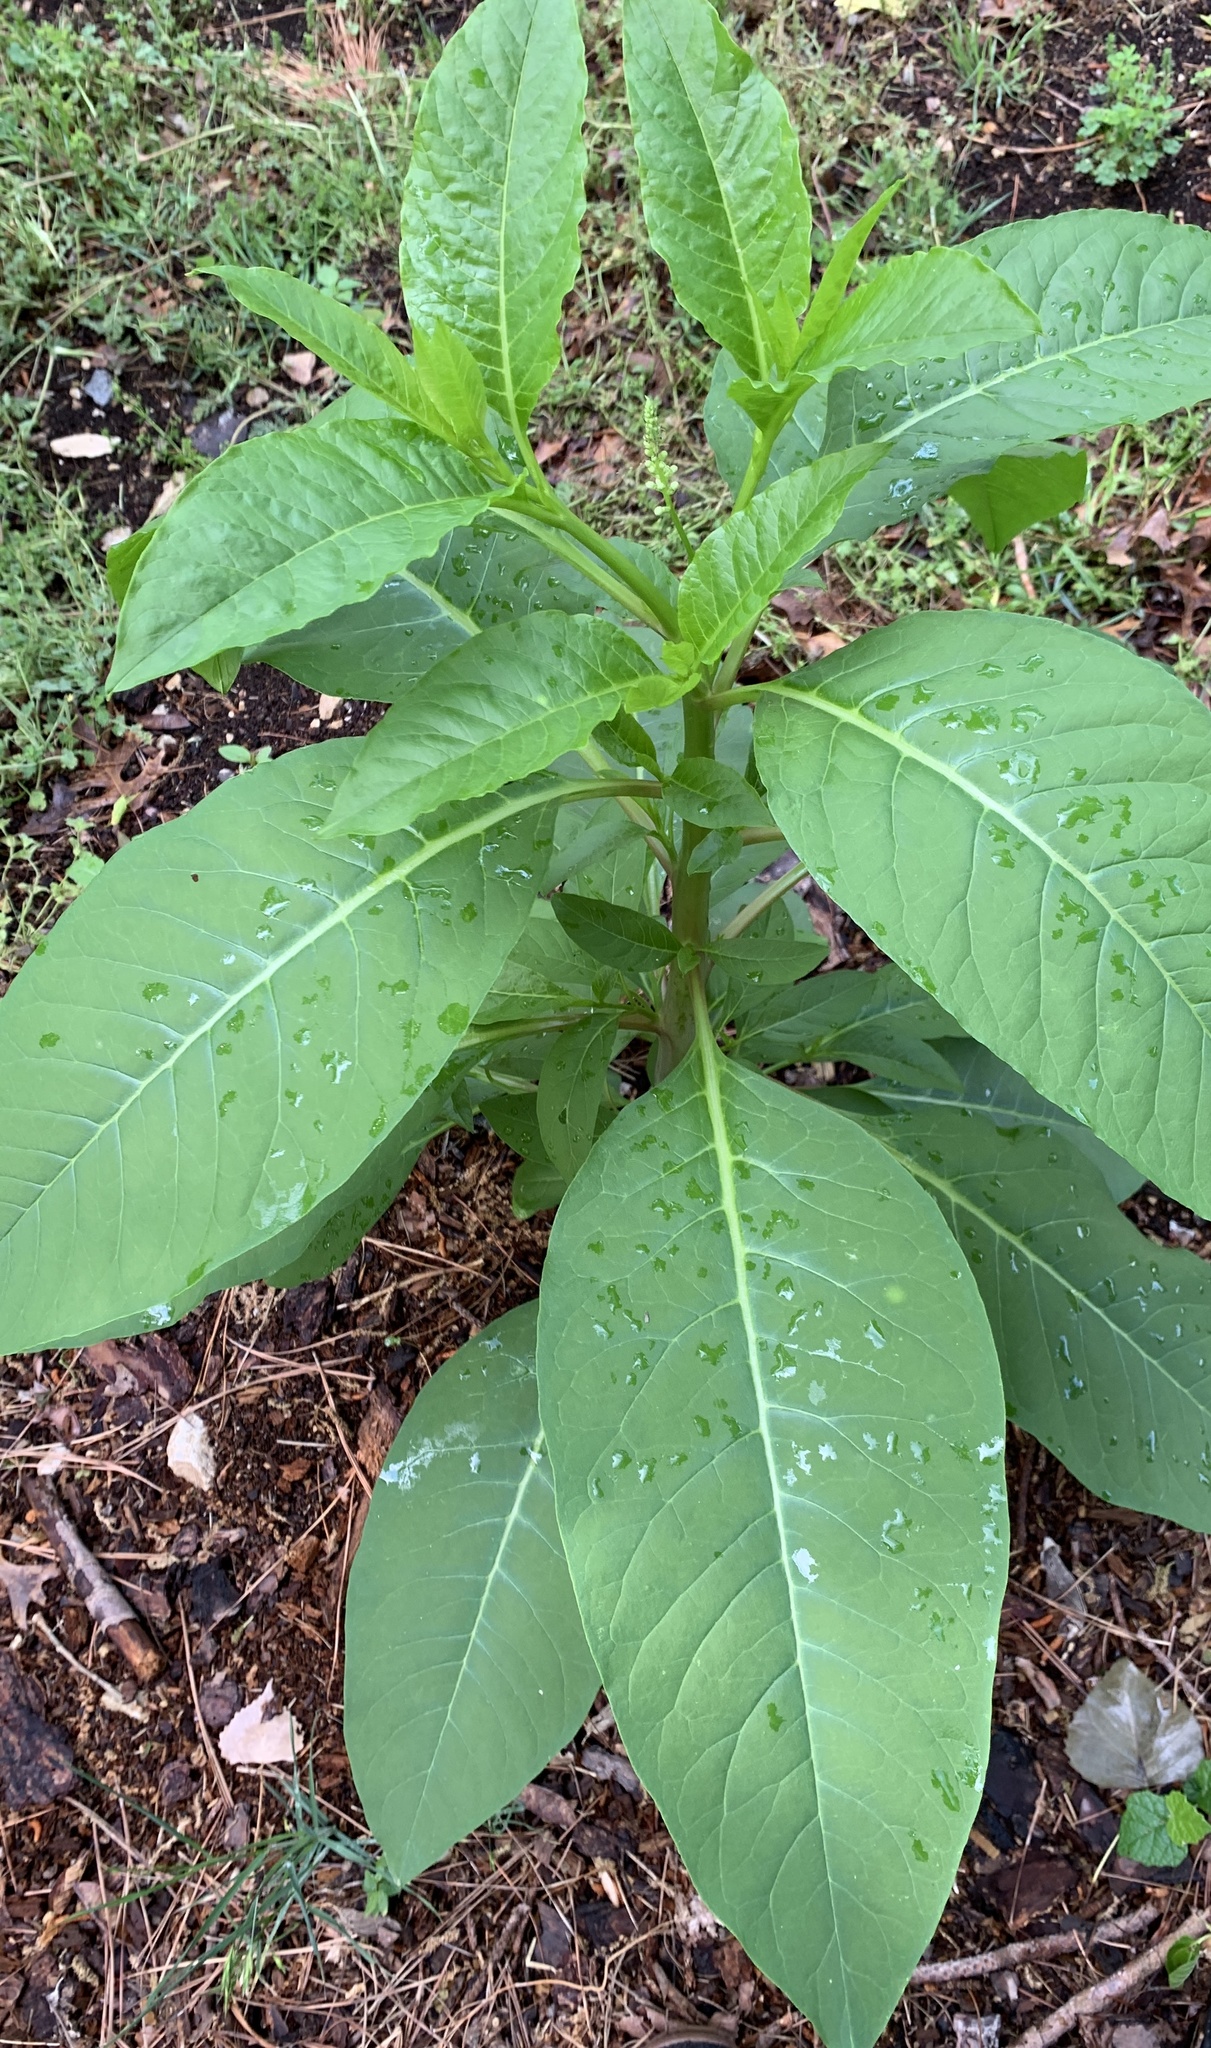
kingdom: Plantae
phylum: Tracheophyta
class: Magnoliopsida
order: Caryophyllales
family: Phytolaccaceae
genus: Phytolacca
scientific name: Phytolacca americana
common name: American pokeweed
